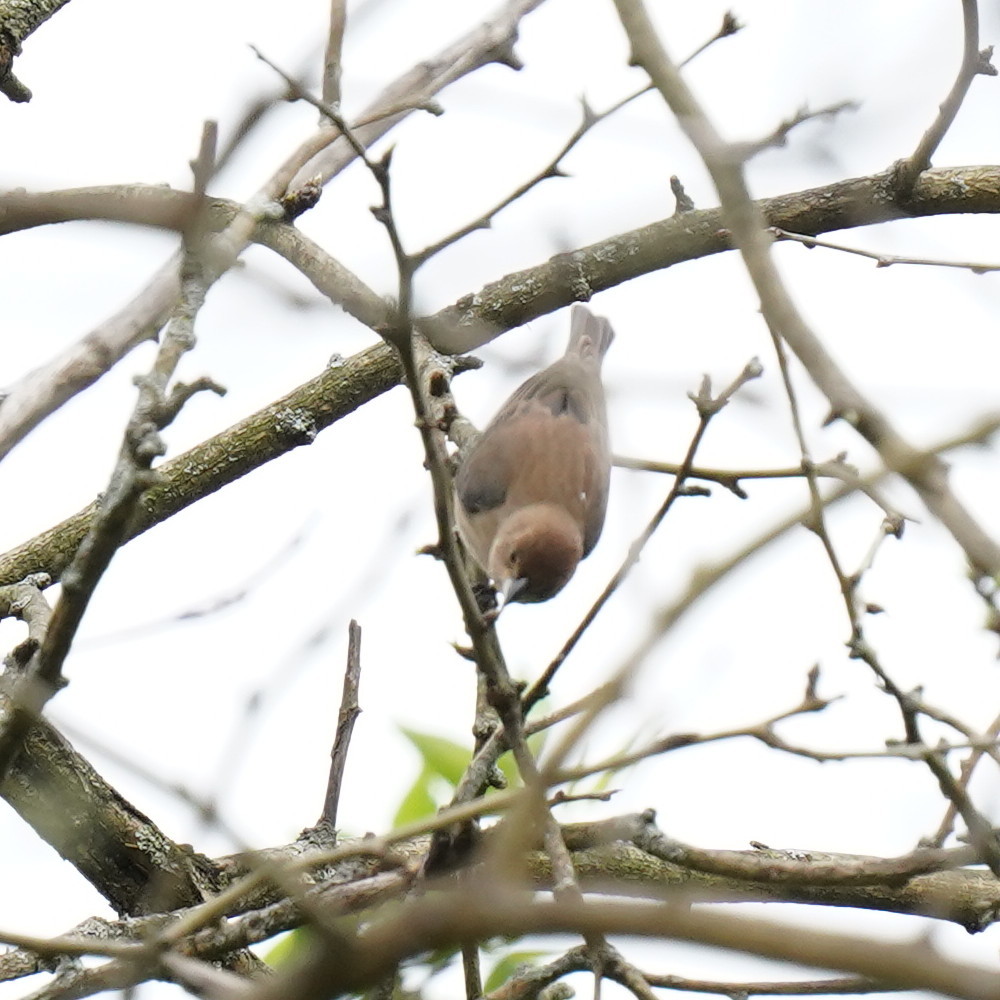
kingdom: Animalia
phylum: Chordata
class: Aves
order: Passeriformes
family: Cardinalidae
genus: Passerina
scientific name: Passerina cyanea
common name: Indigo bunting
